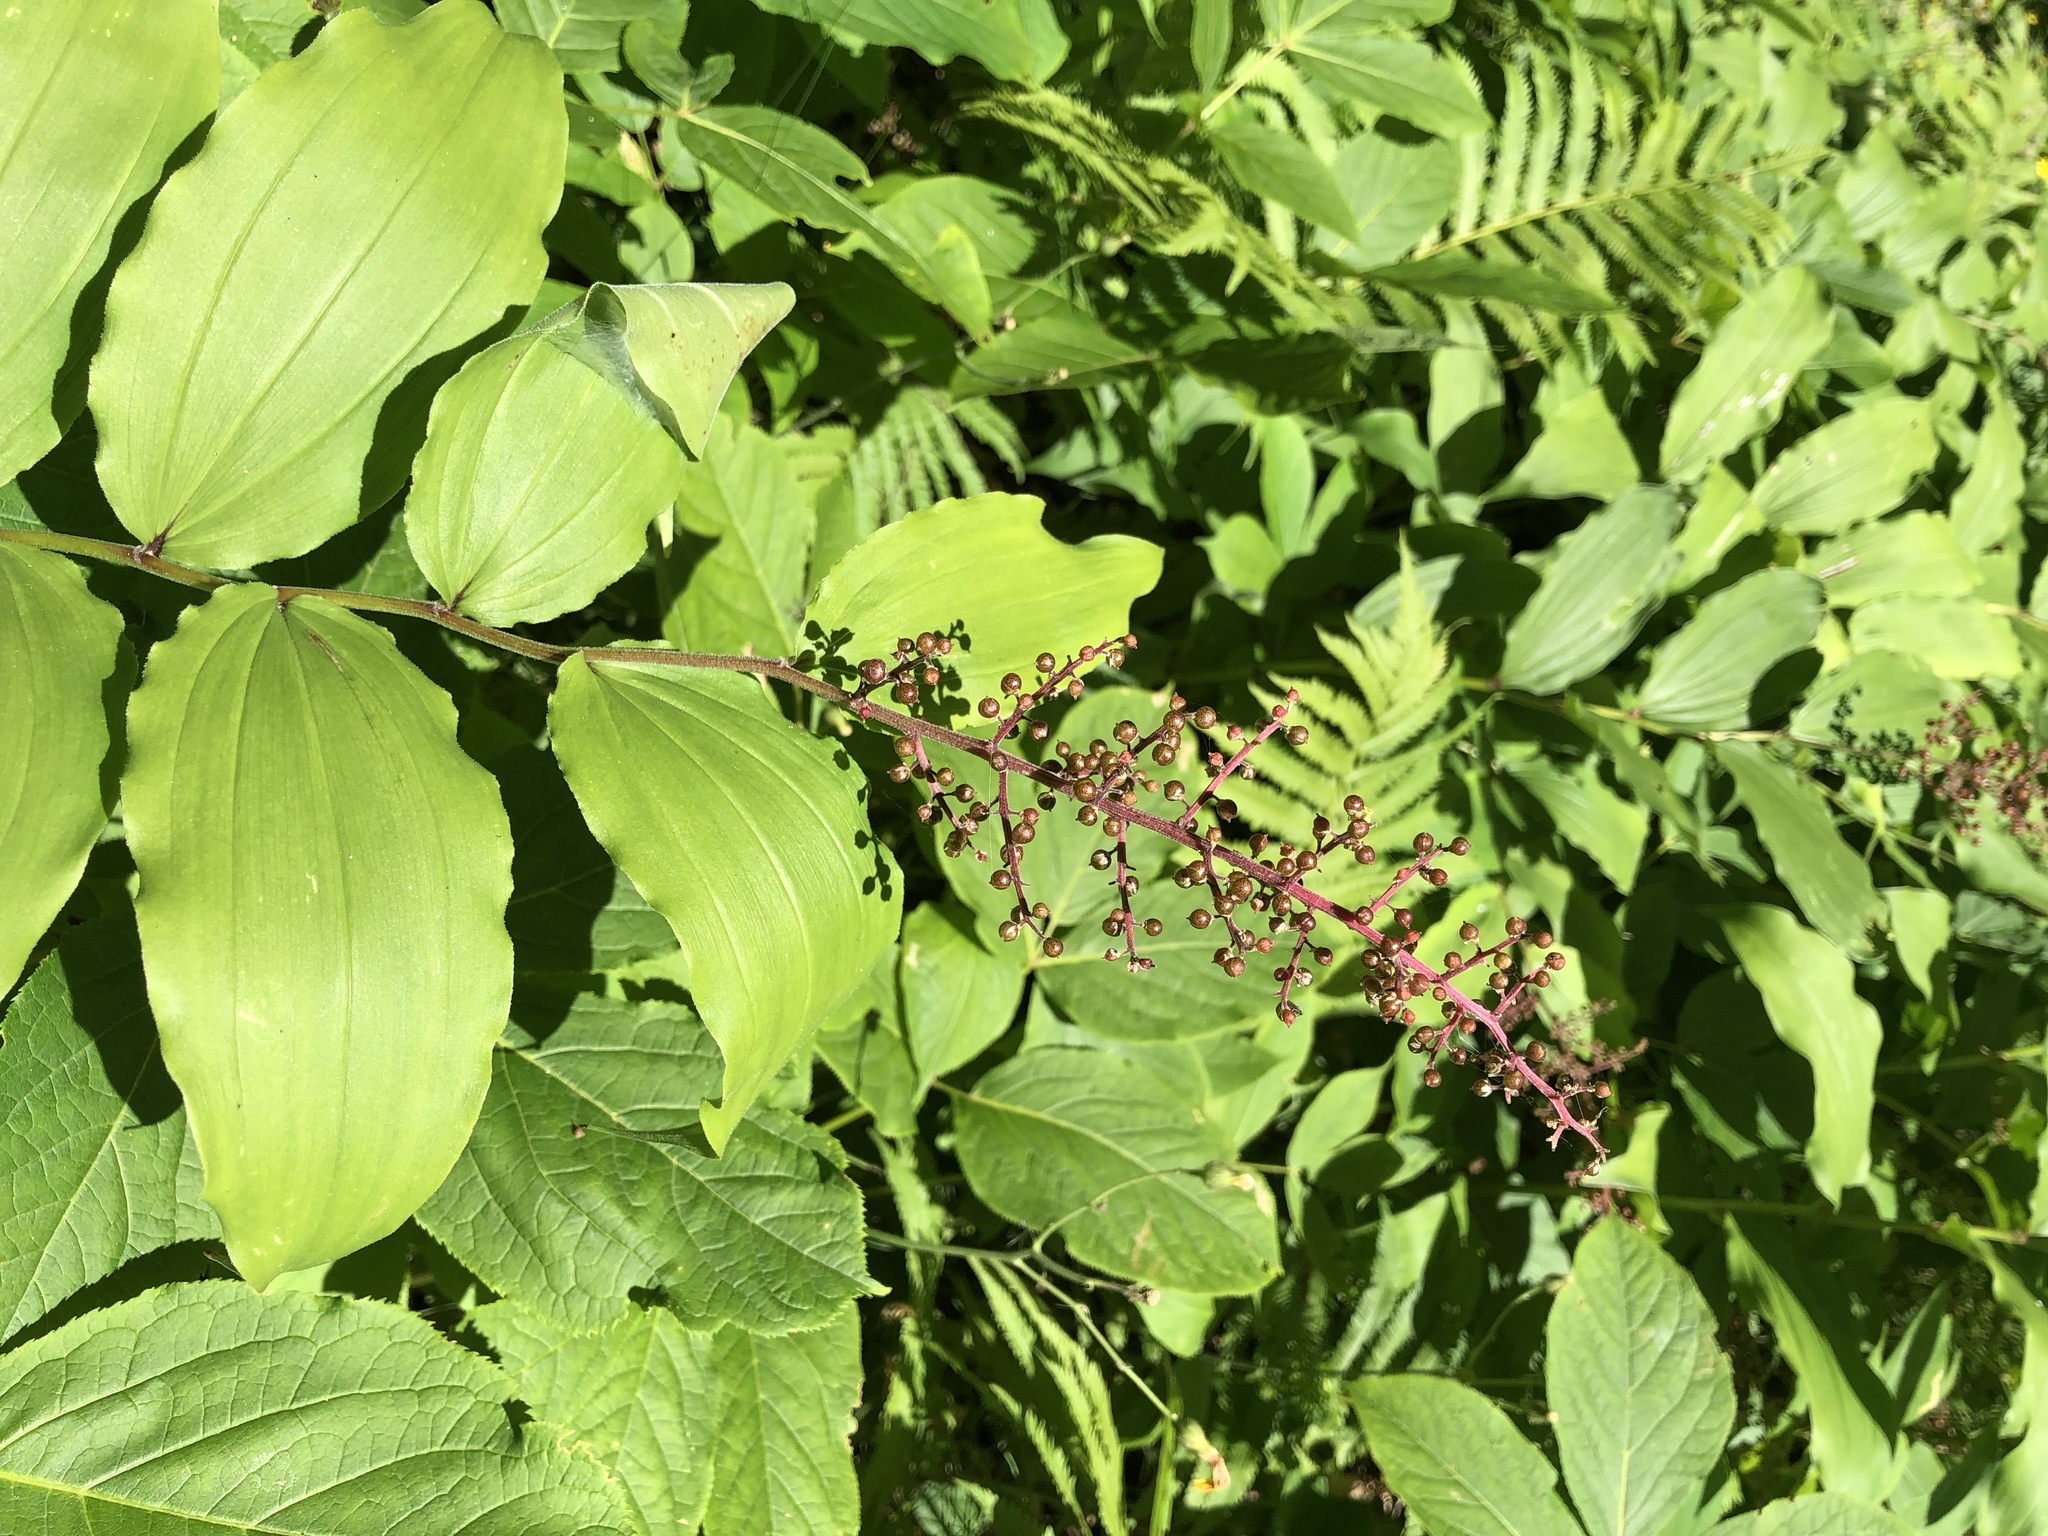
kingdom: Plantae
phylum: Tracheophyta
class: Liliopsida
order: Asparagales
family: Asparagaceae
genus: Maianthemum
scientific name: Maianthemum racemosum
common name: False spikenard
